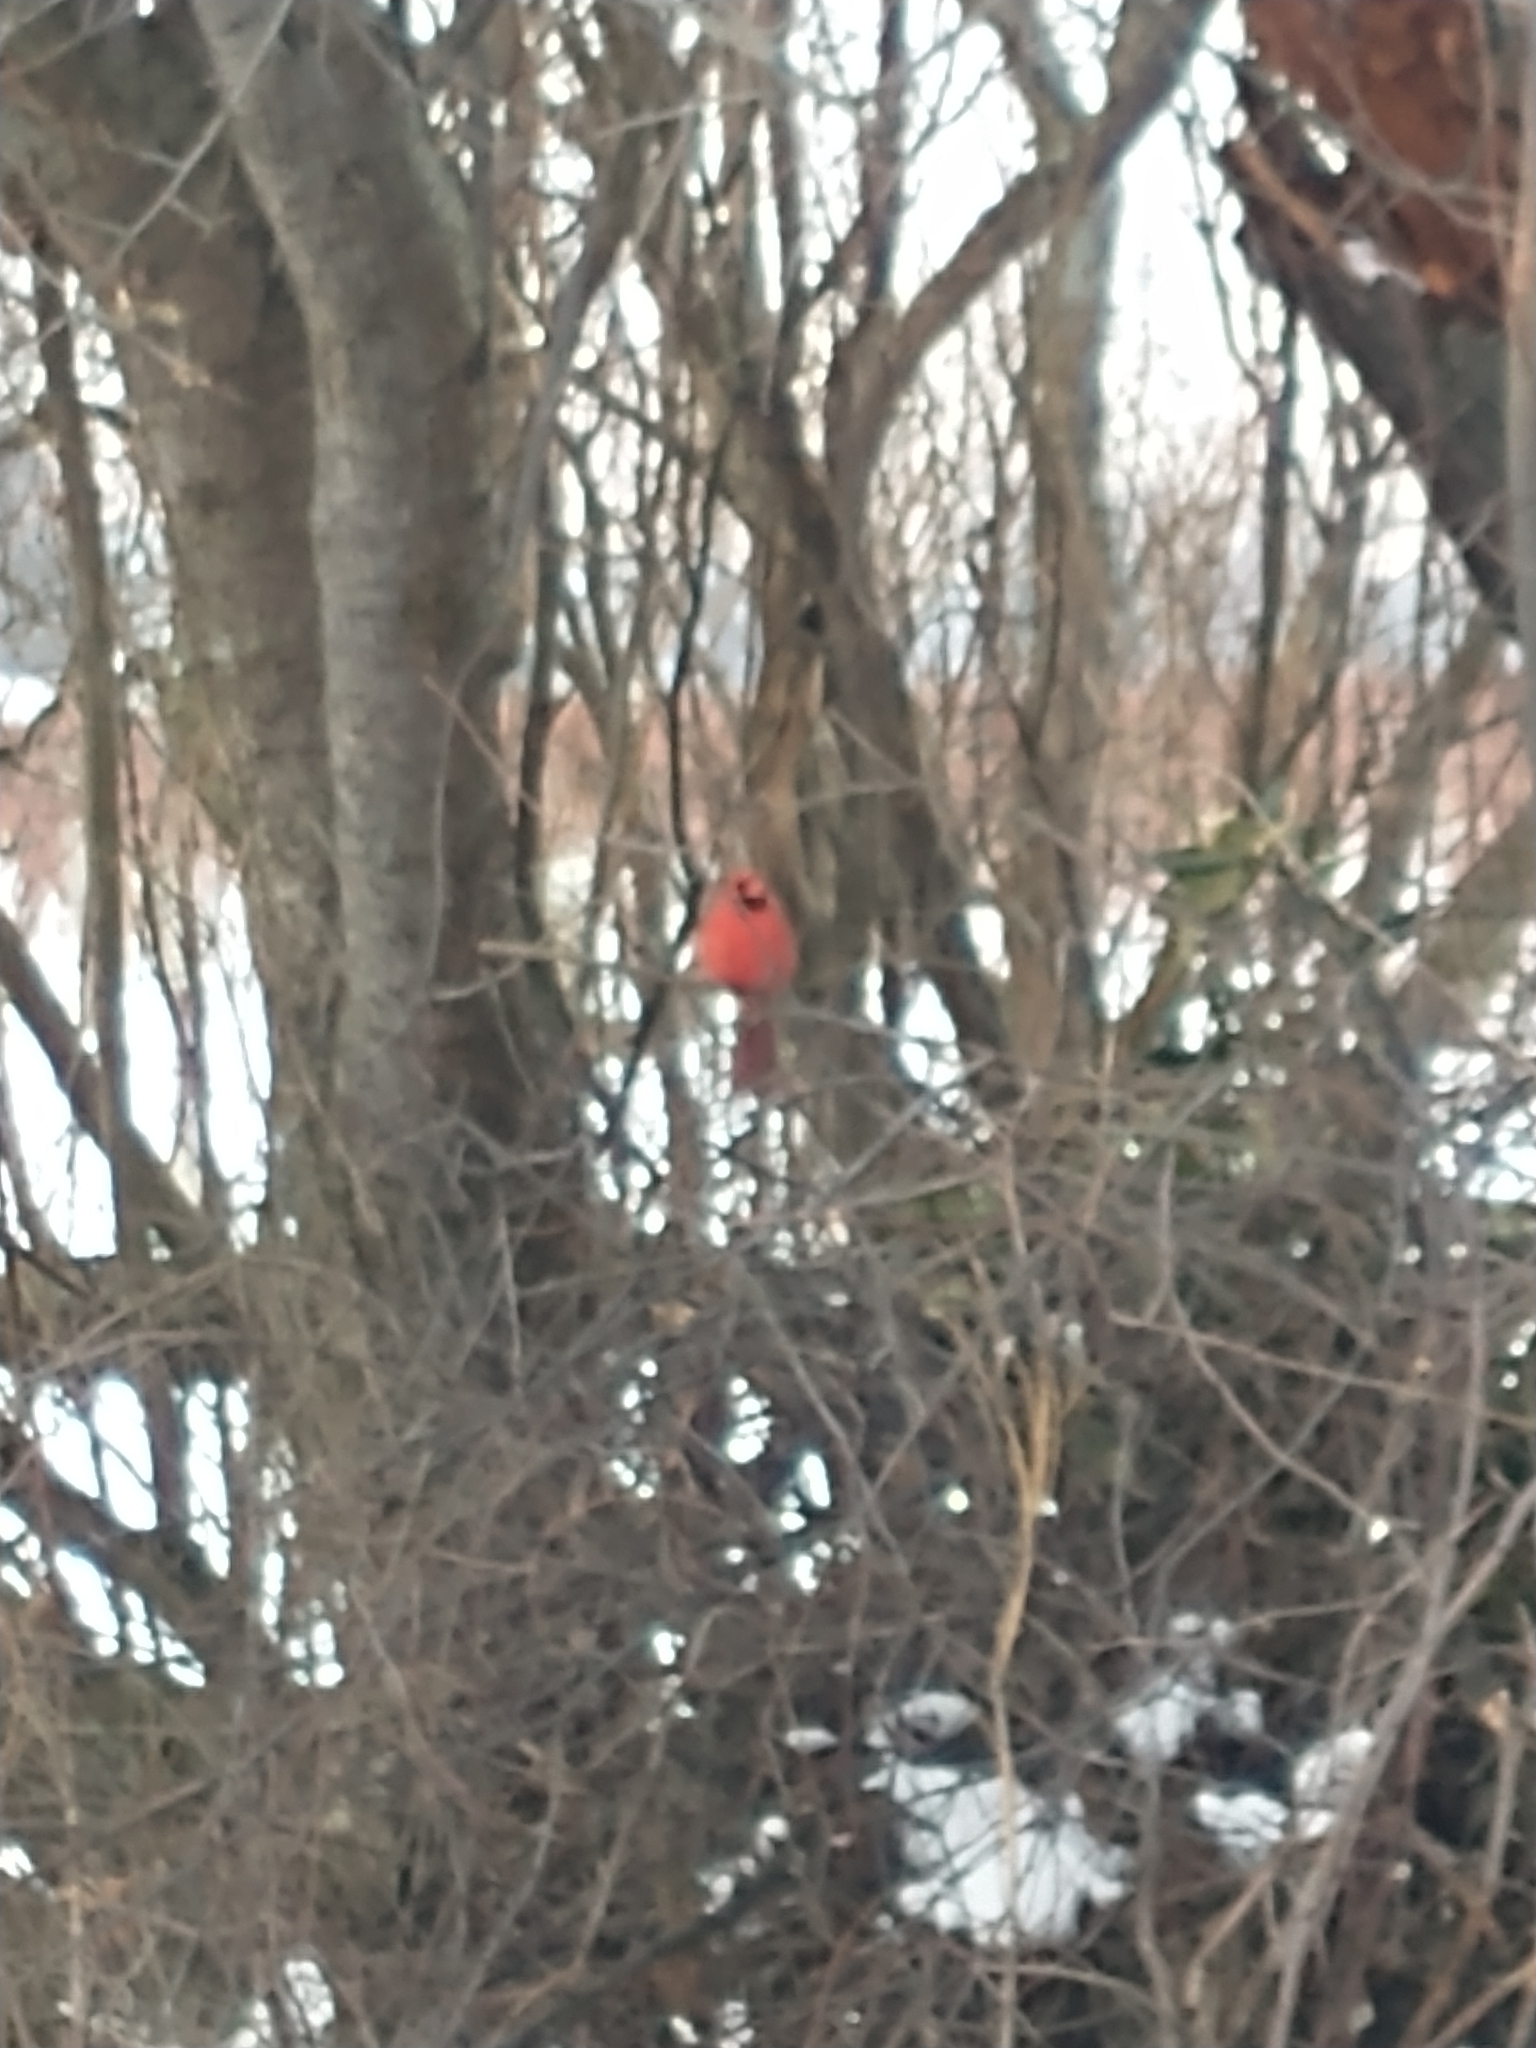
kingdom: Animalia
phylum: Chordata
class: Aves
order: Passeriformes
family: Cardinalidae
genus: Cardinalis
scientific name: Cardinalis cardinalis
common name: Northern cardinal
